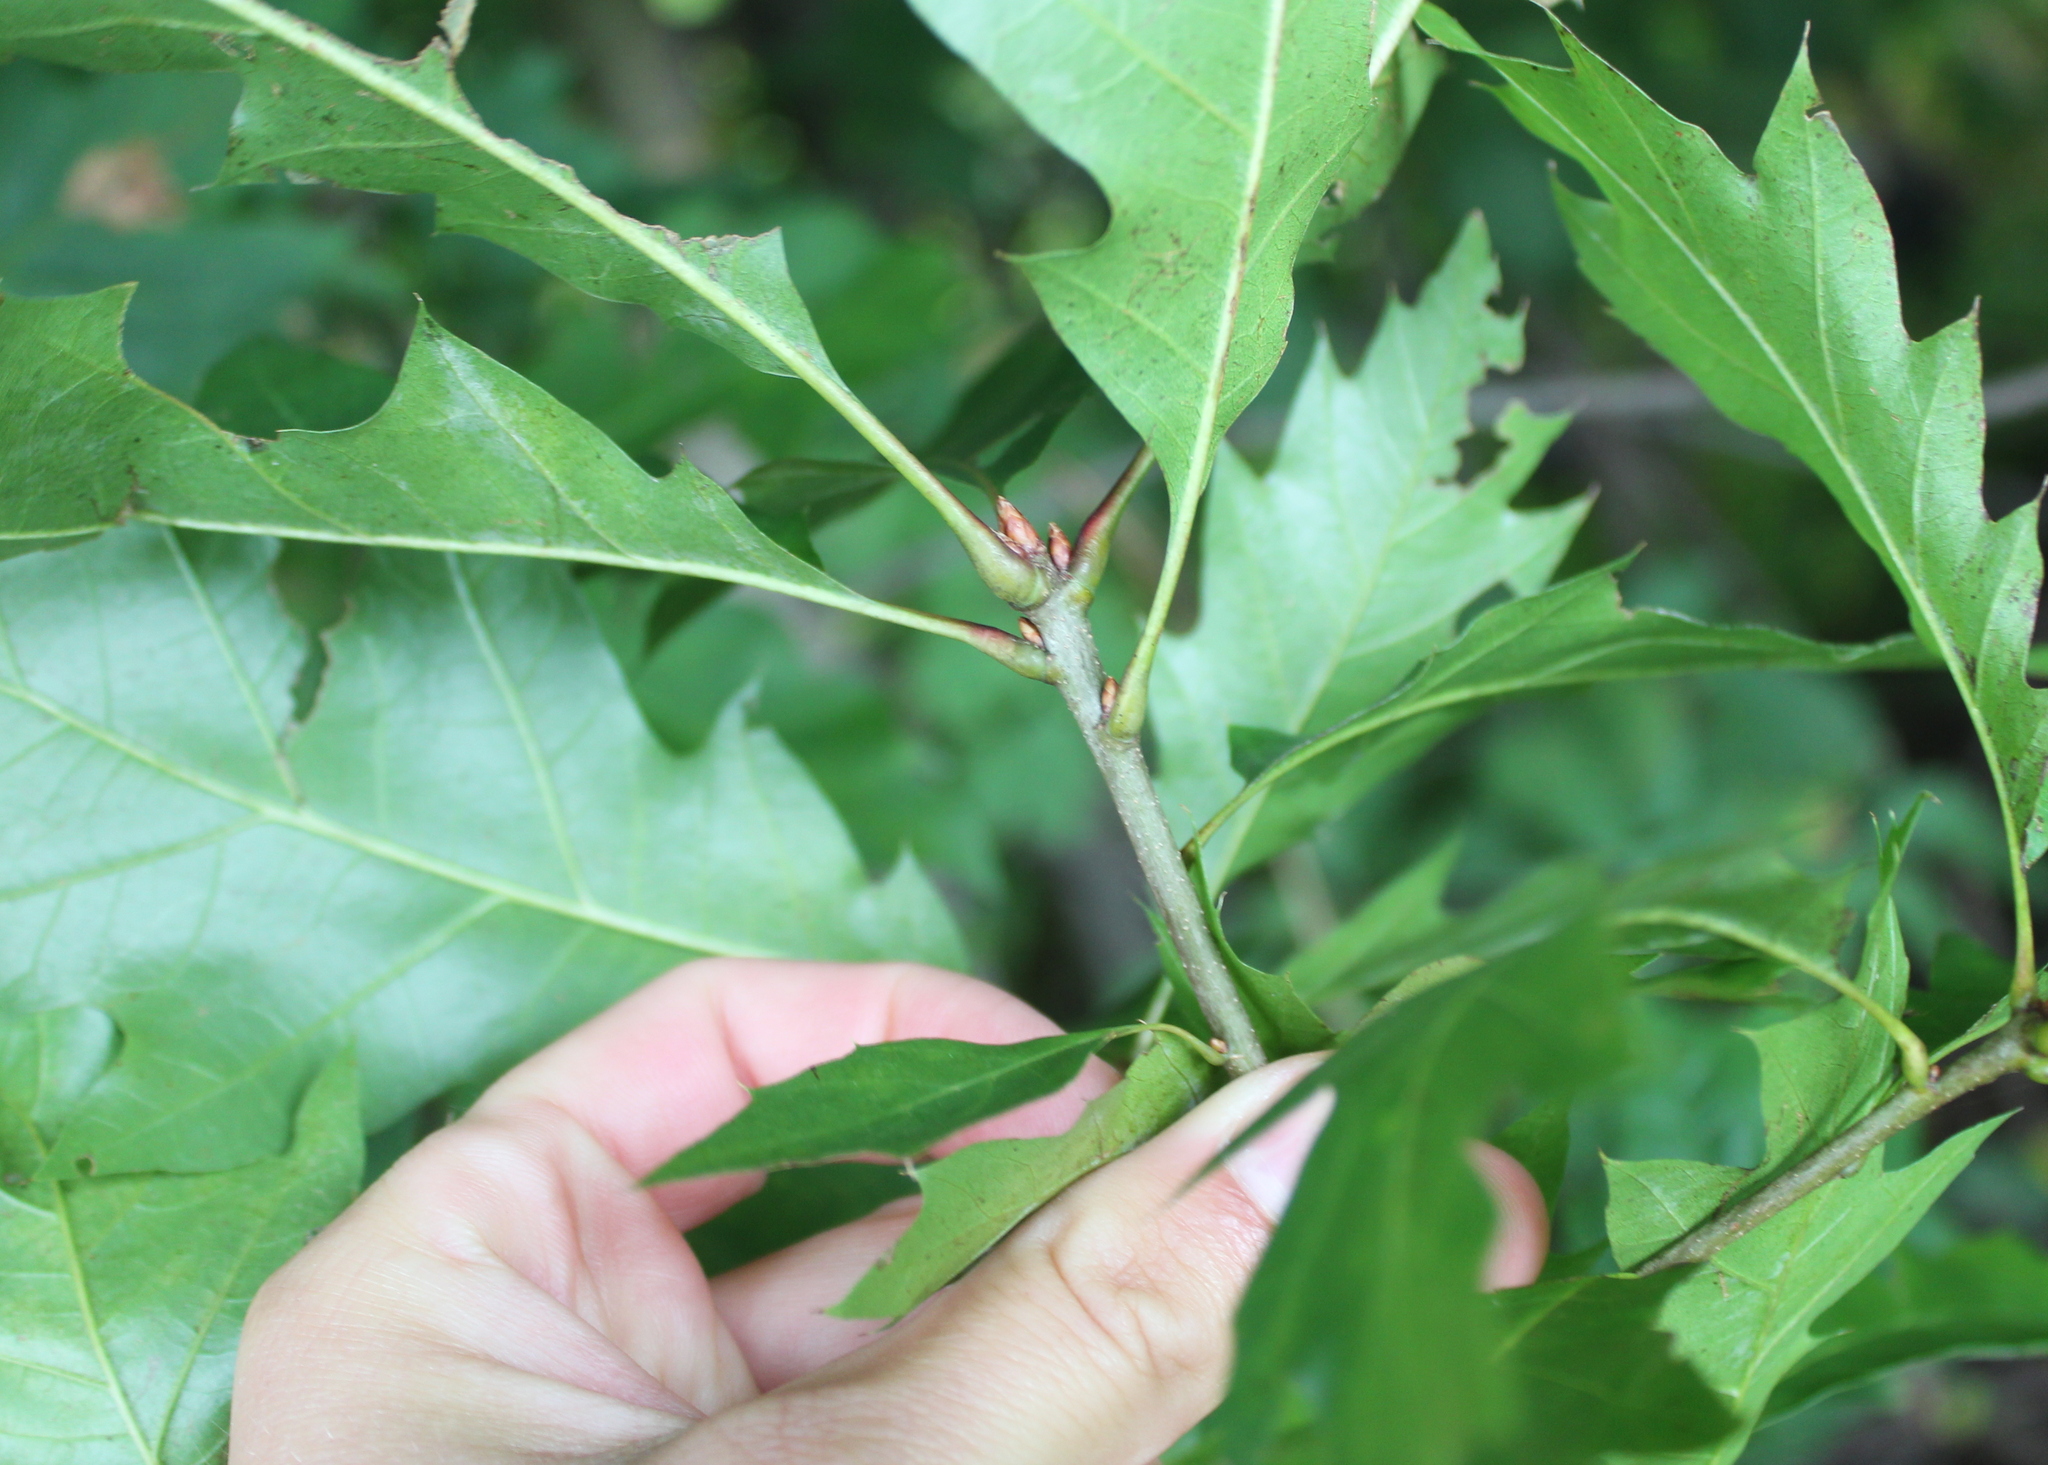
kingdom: Plantae
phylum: Tracheophyta
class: Magnoliopsida
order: Fagales
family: Fagaceae
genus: Quercus
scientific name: Quercus rubra
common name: Red oak
